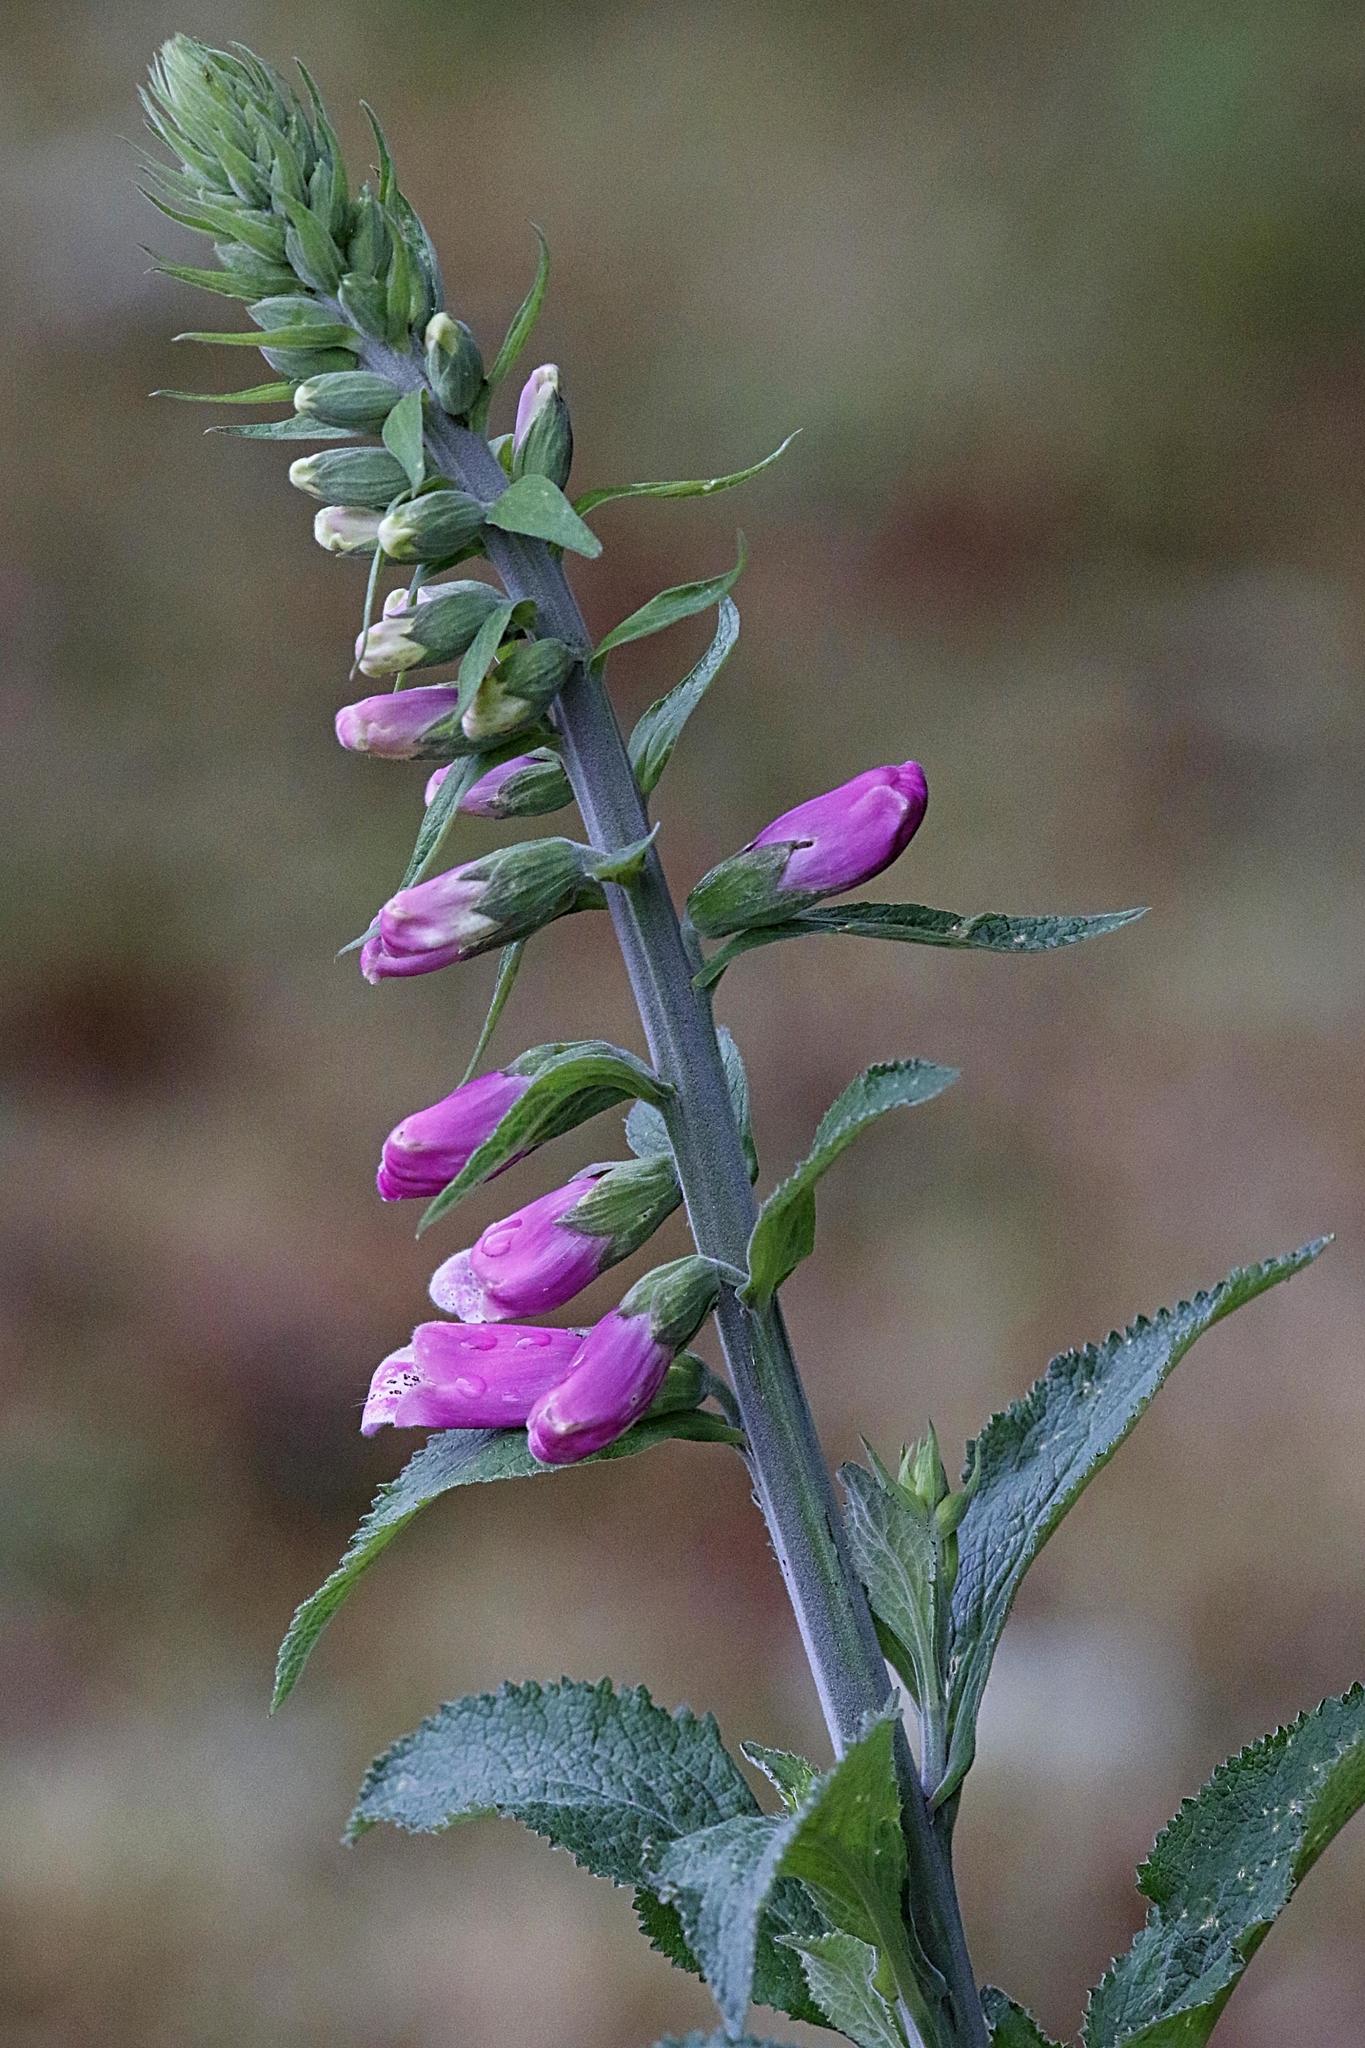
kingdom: Plantae
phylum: Tracheophyta
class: Magnoliopsida
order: Lamiales
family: Plantaginaceae
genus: Digitalis
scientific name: Digitalis purpurea
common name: Foxglove
